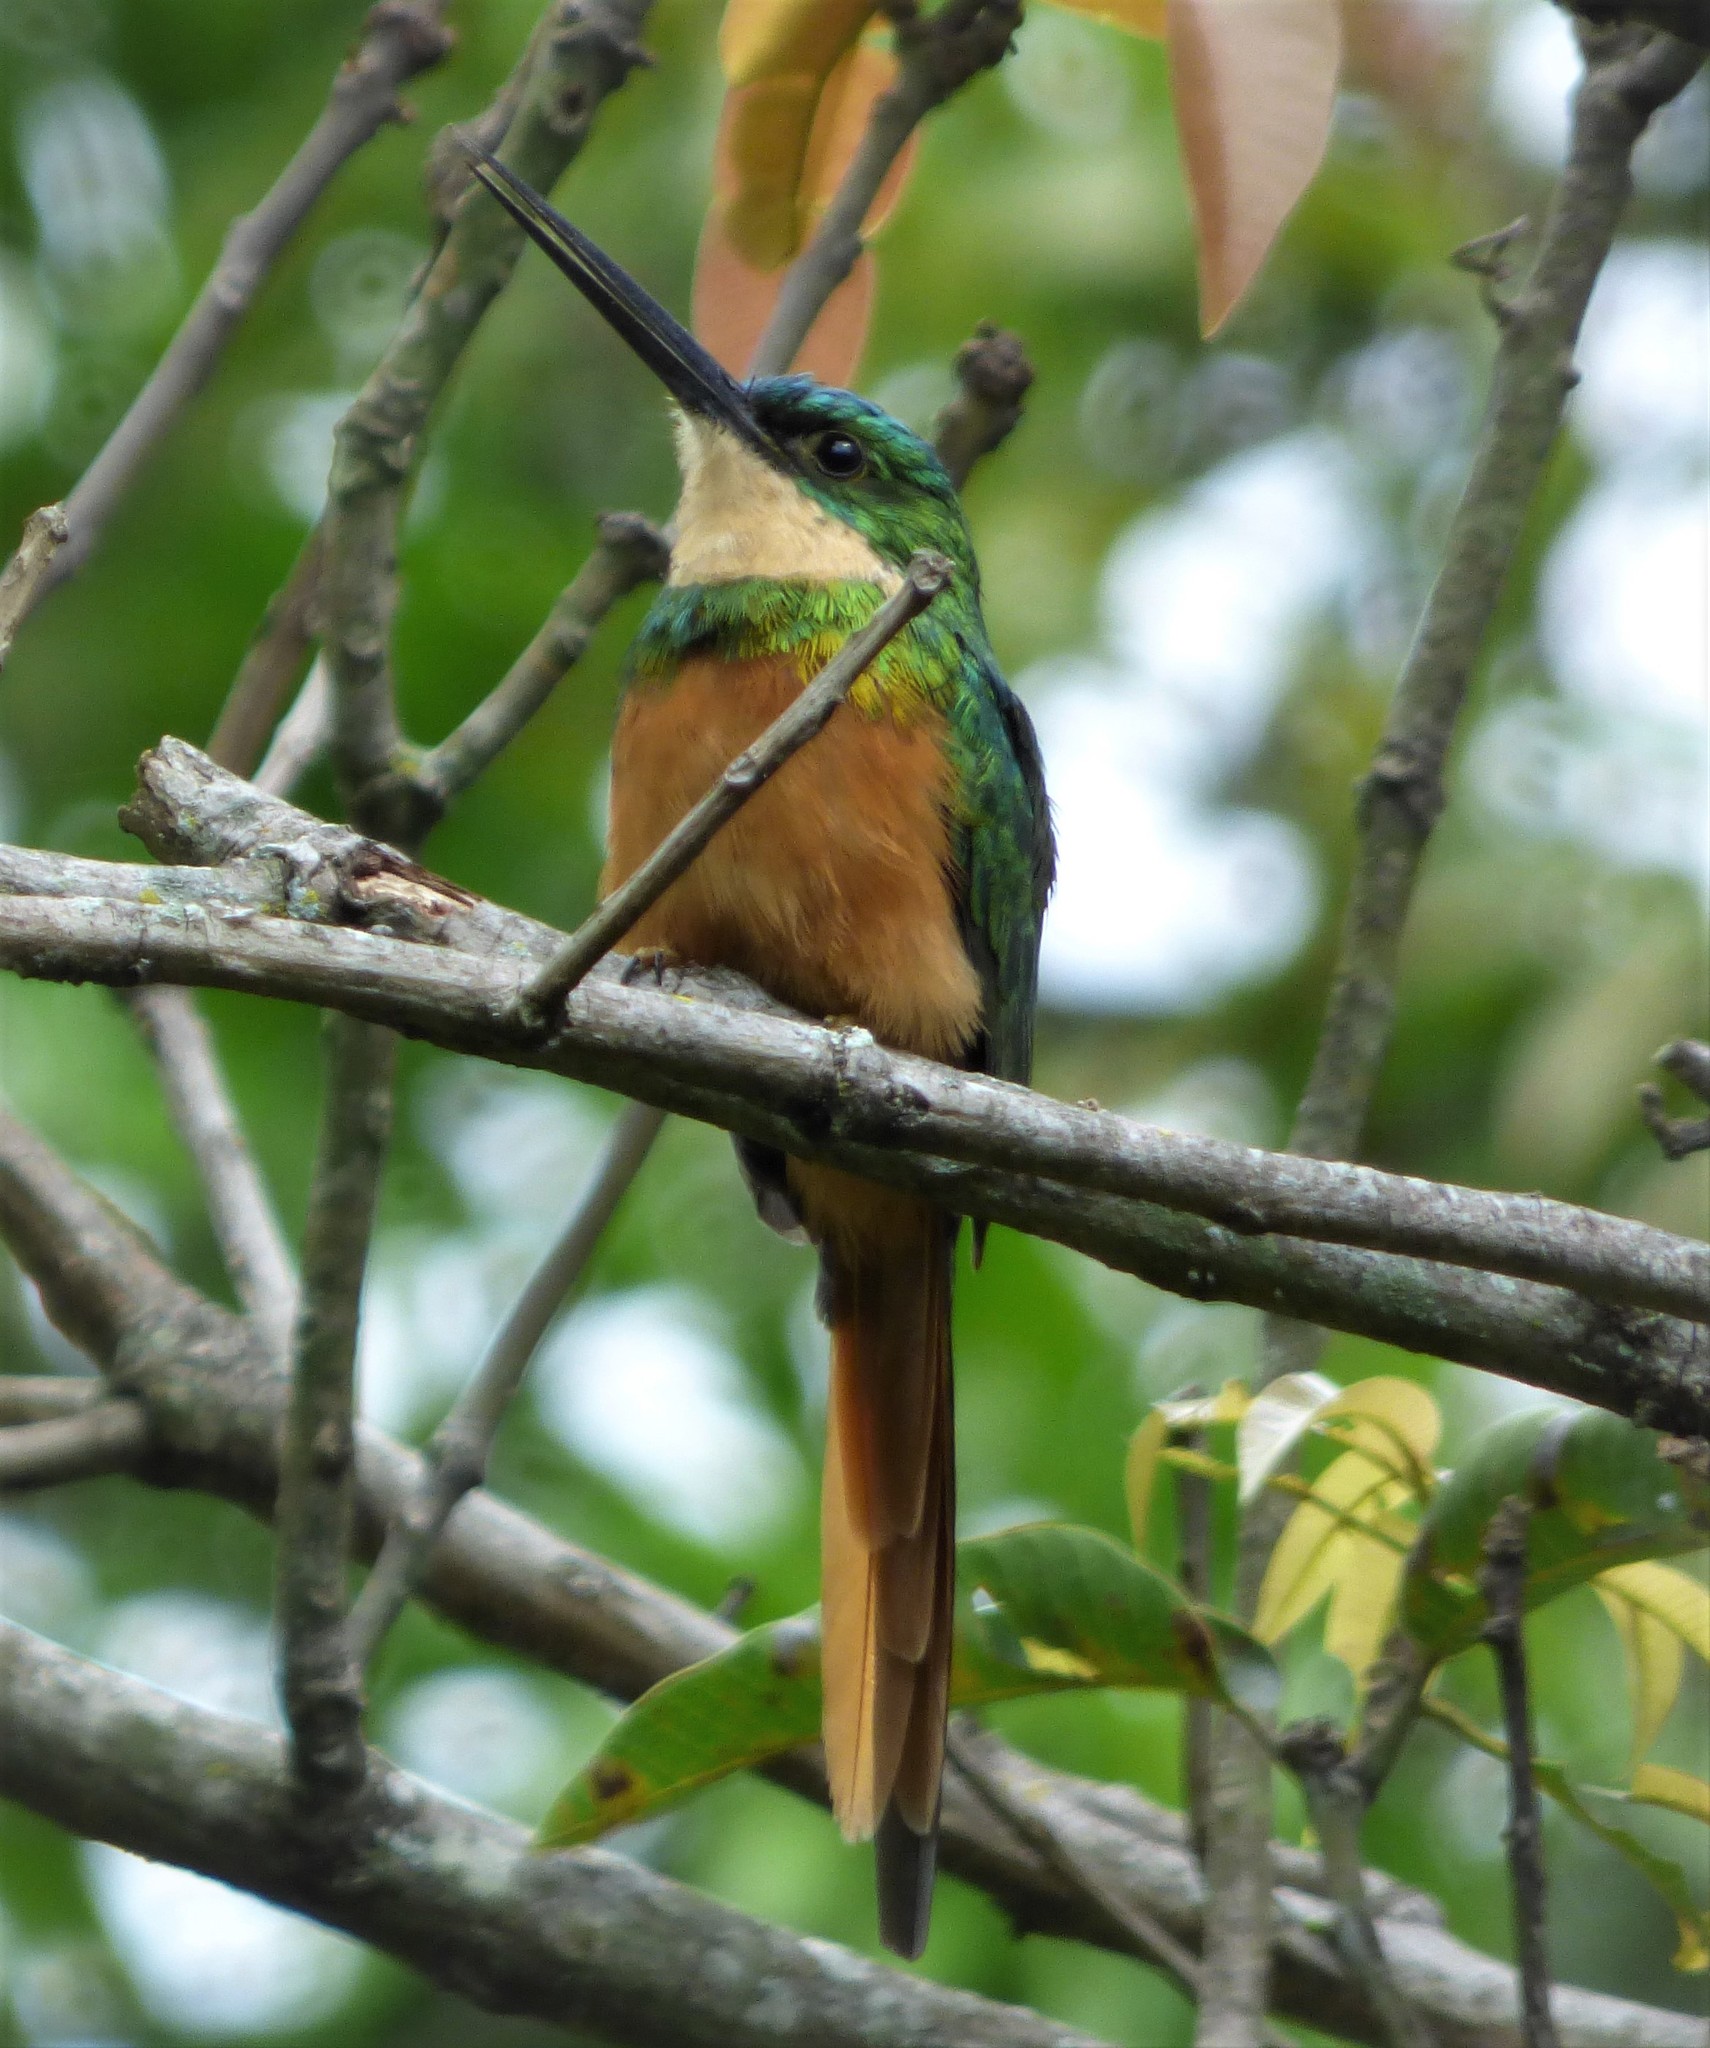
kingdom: Animalia
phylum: Chordata
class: Aves
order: Piciformes
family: Galbulidae
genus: Galbula
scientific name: Galbula ruficauda
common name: Rufous-tailed jacamar
